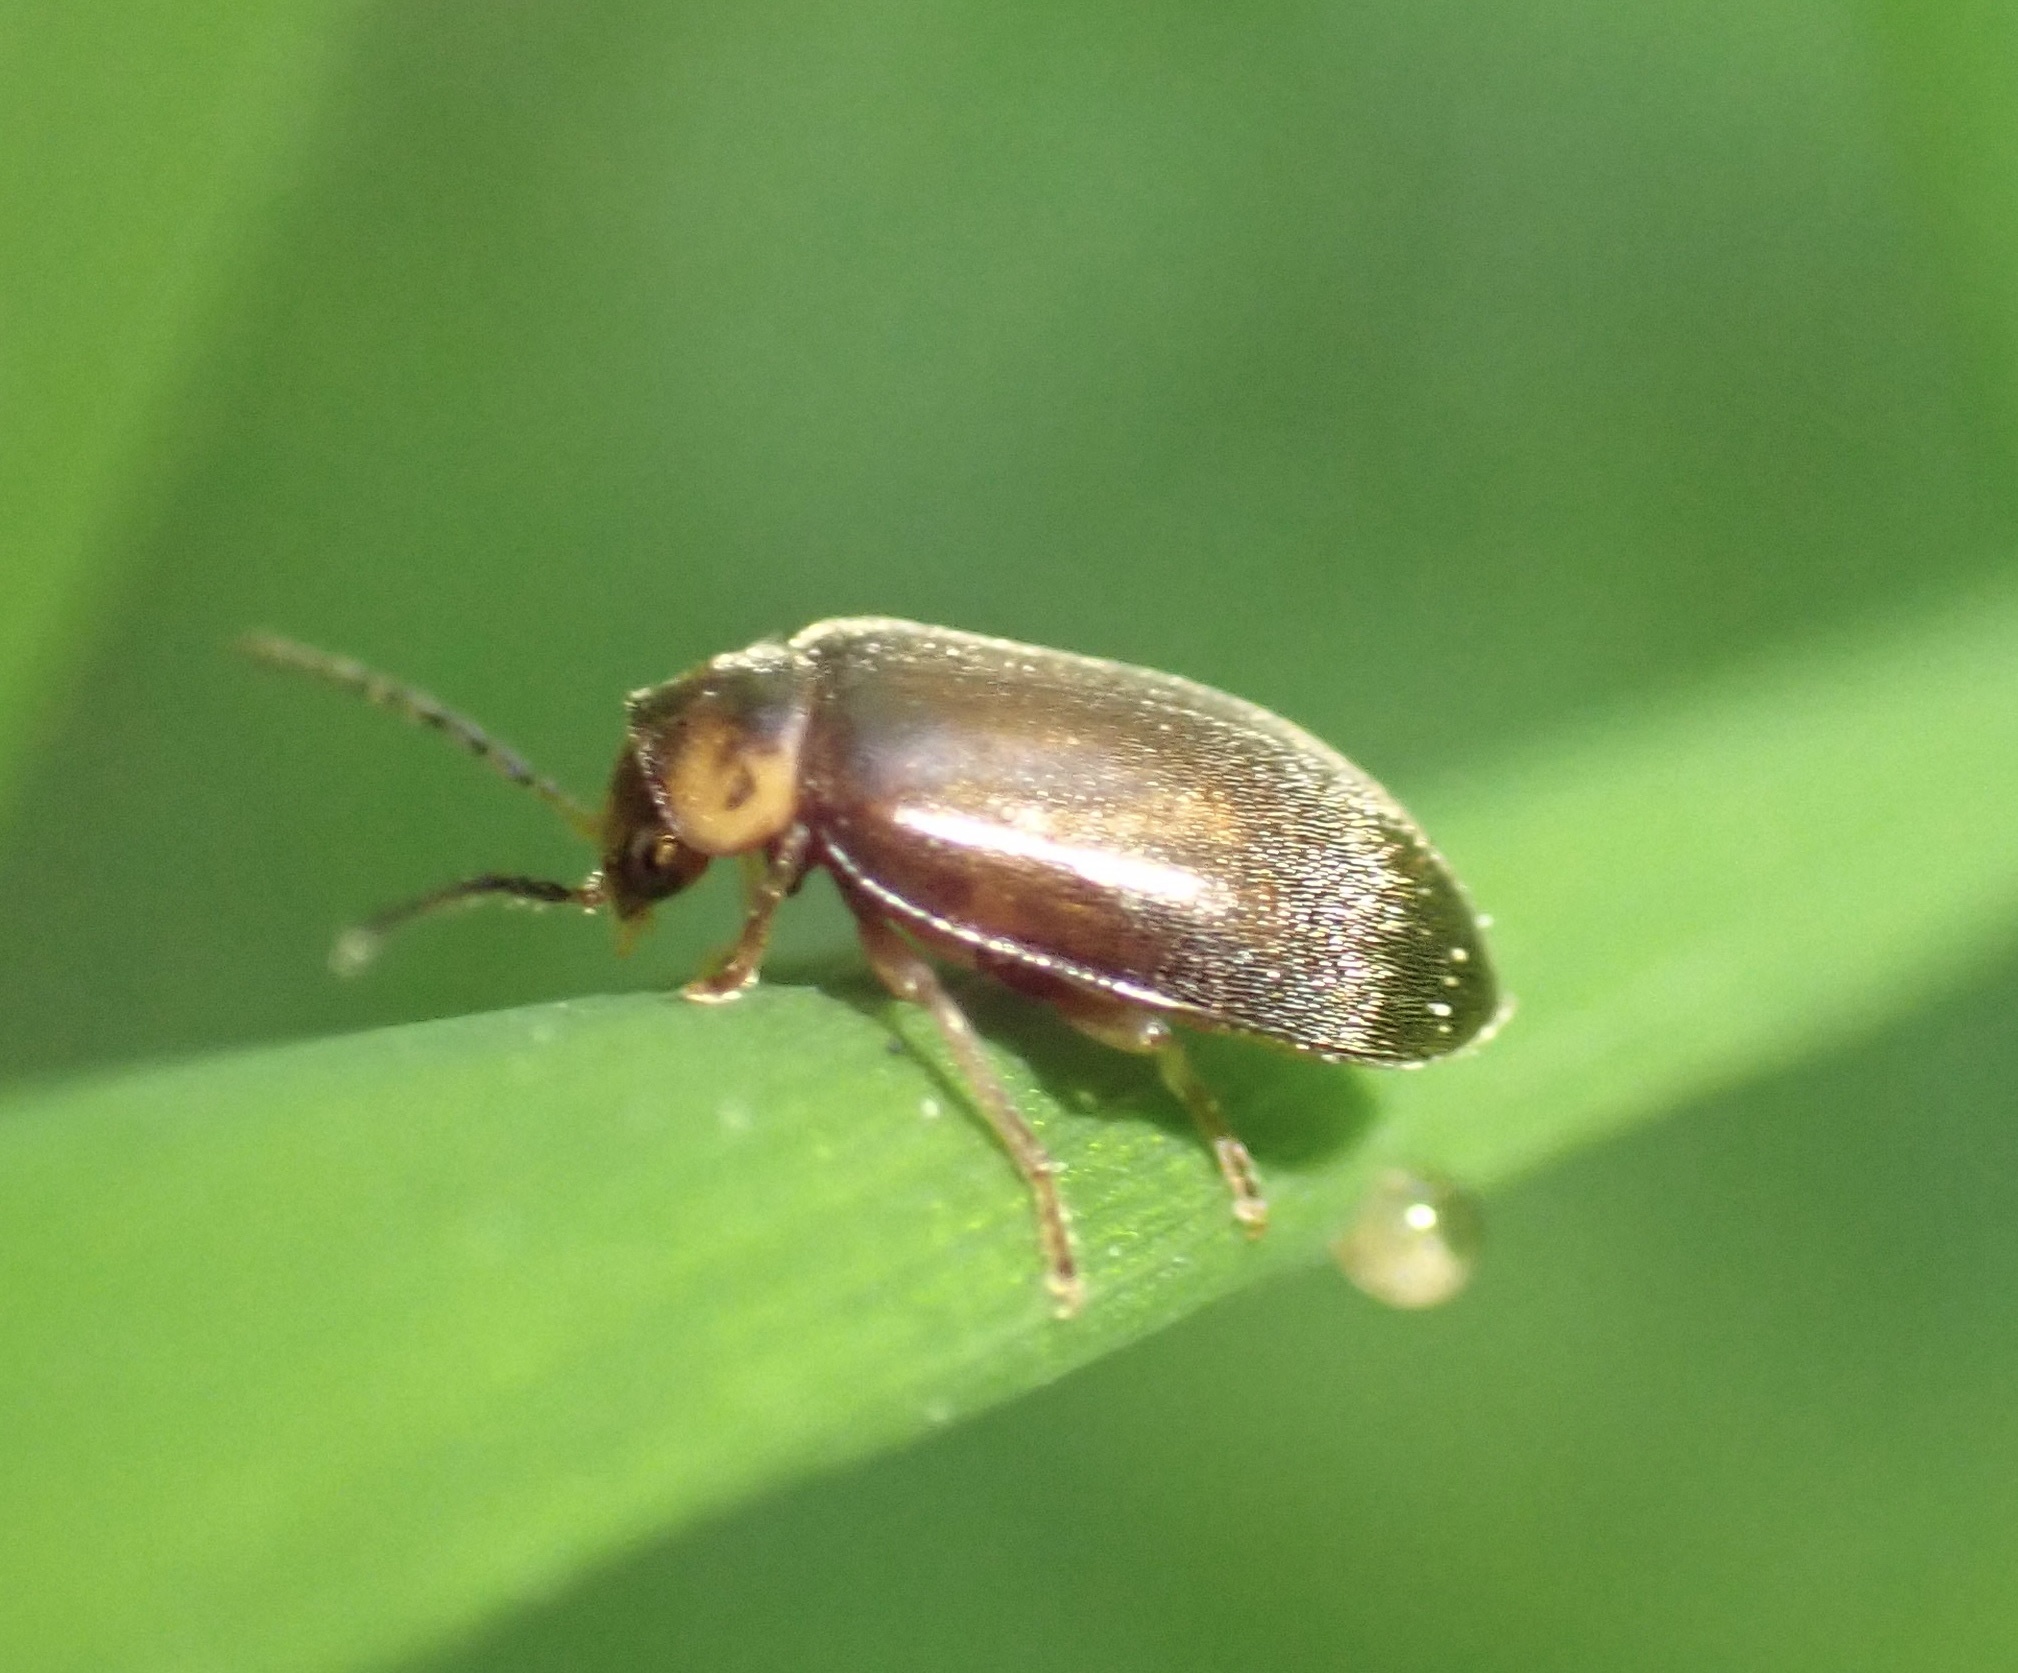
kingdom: Animalia
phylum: Arthropoda
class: Insecta
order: Coleoptera
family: Scirtidae
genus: Microcara
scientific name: Microcara testacea
